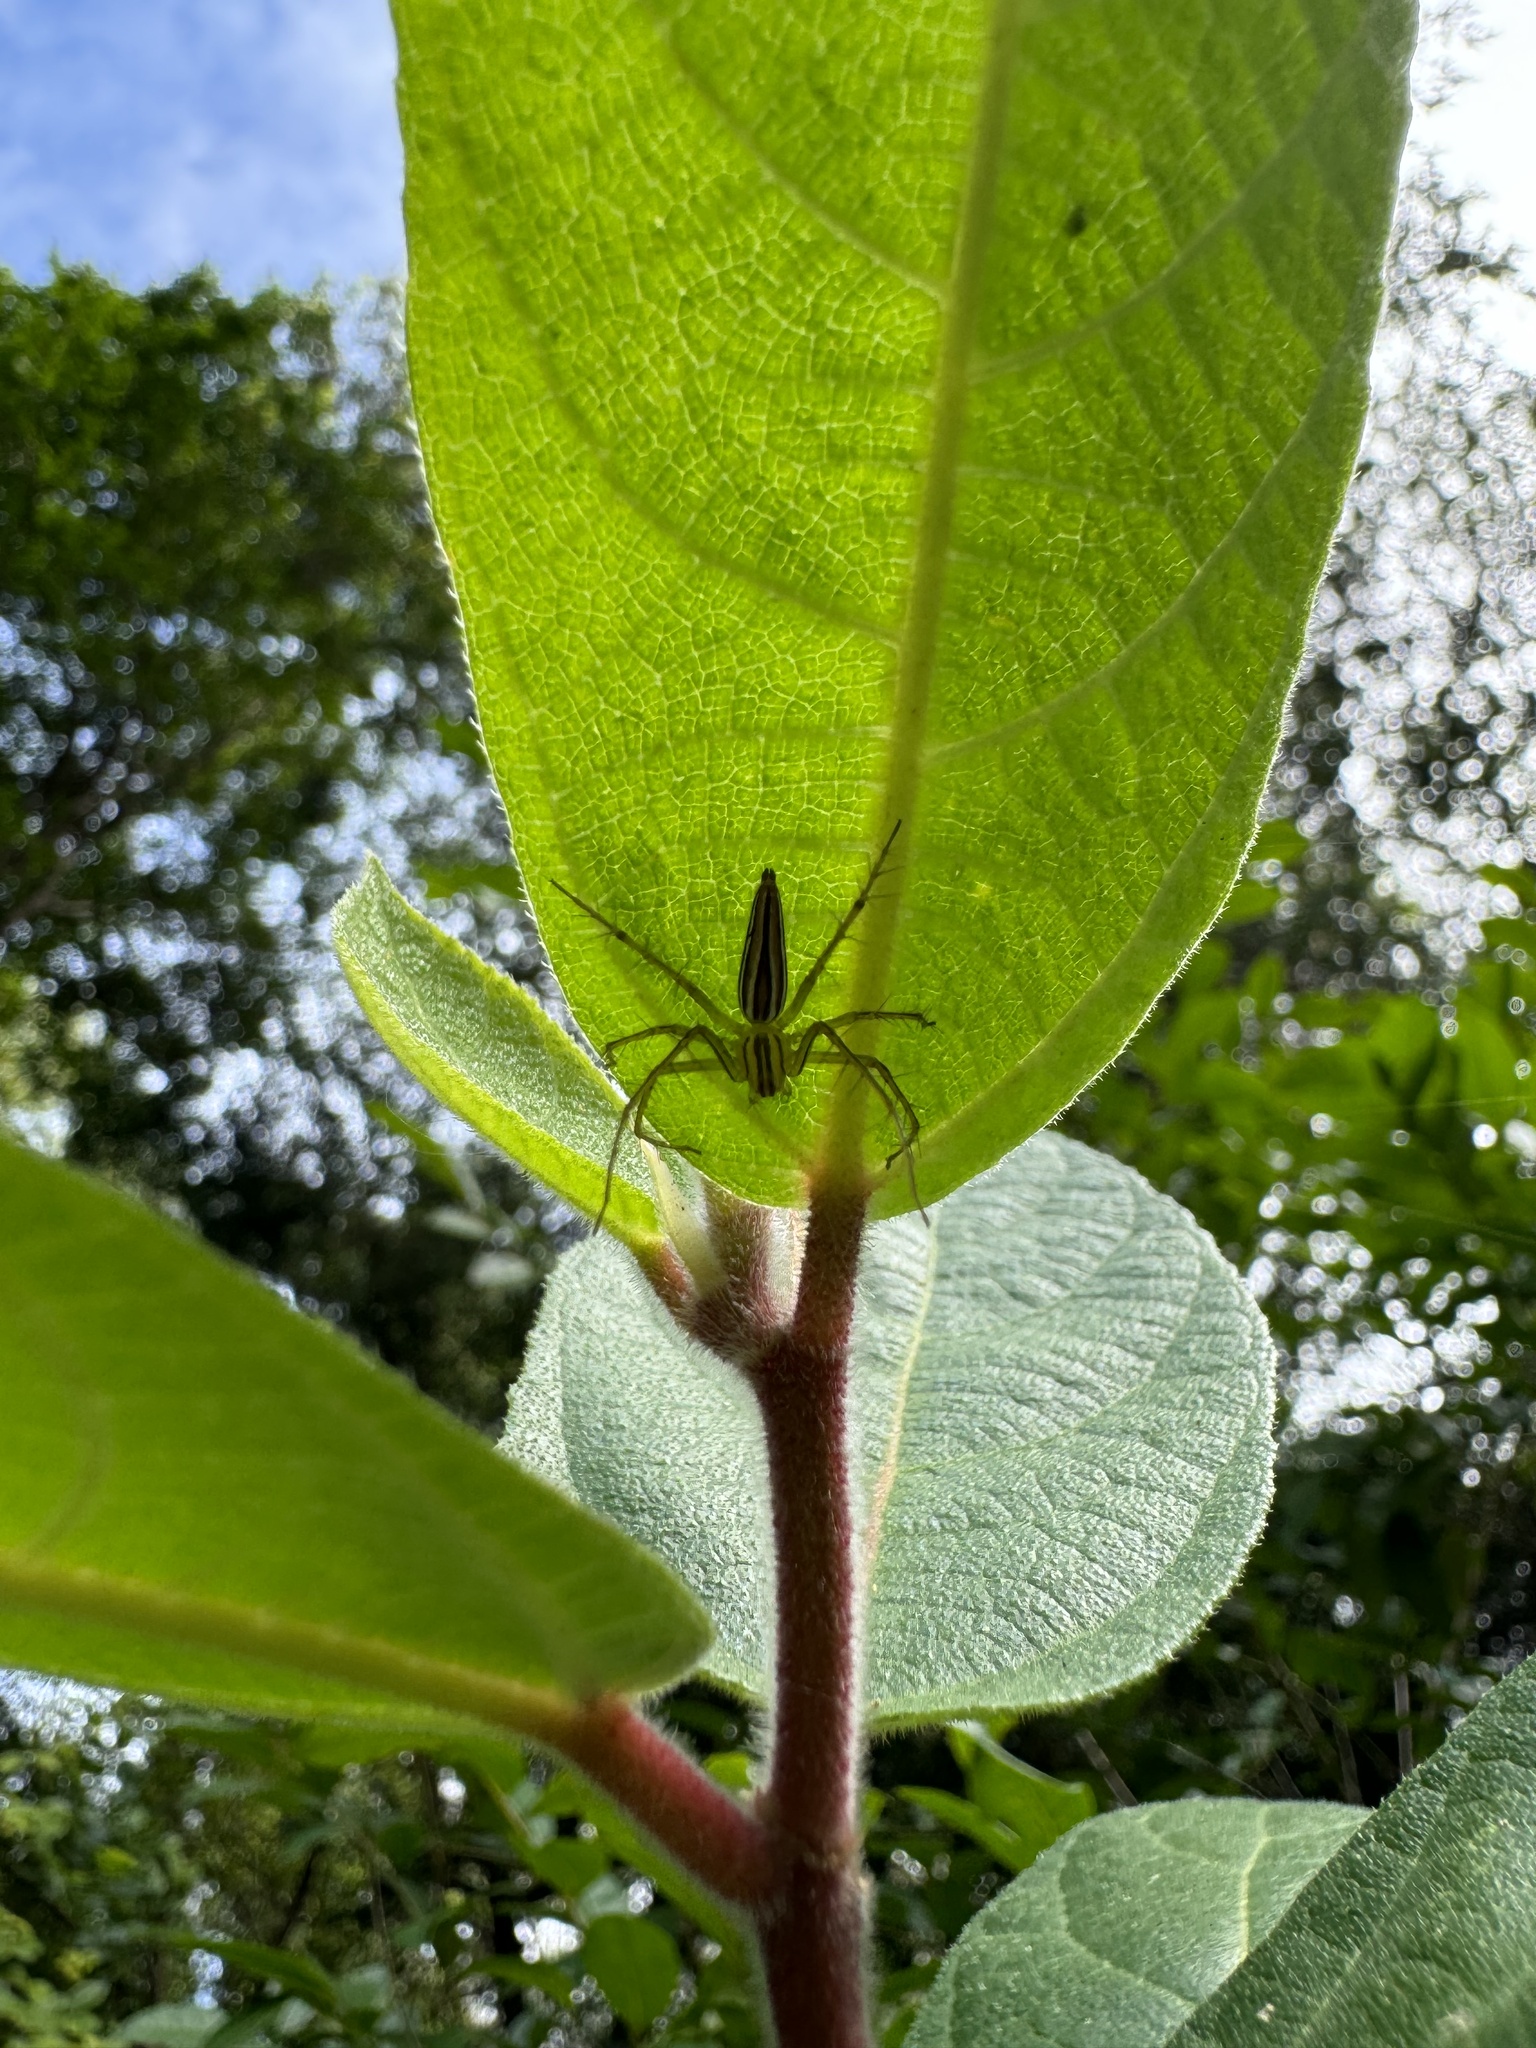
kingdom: Animalia
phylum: Arthropoda
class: Arachnida
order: Araneae
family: Oxyopidae
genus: Oxyopes
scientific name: Oxyopes macilentus
